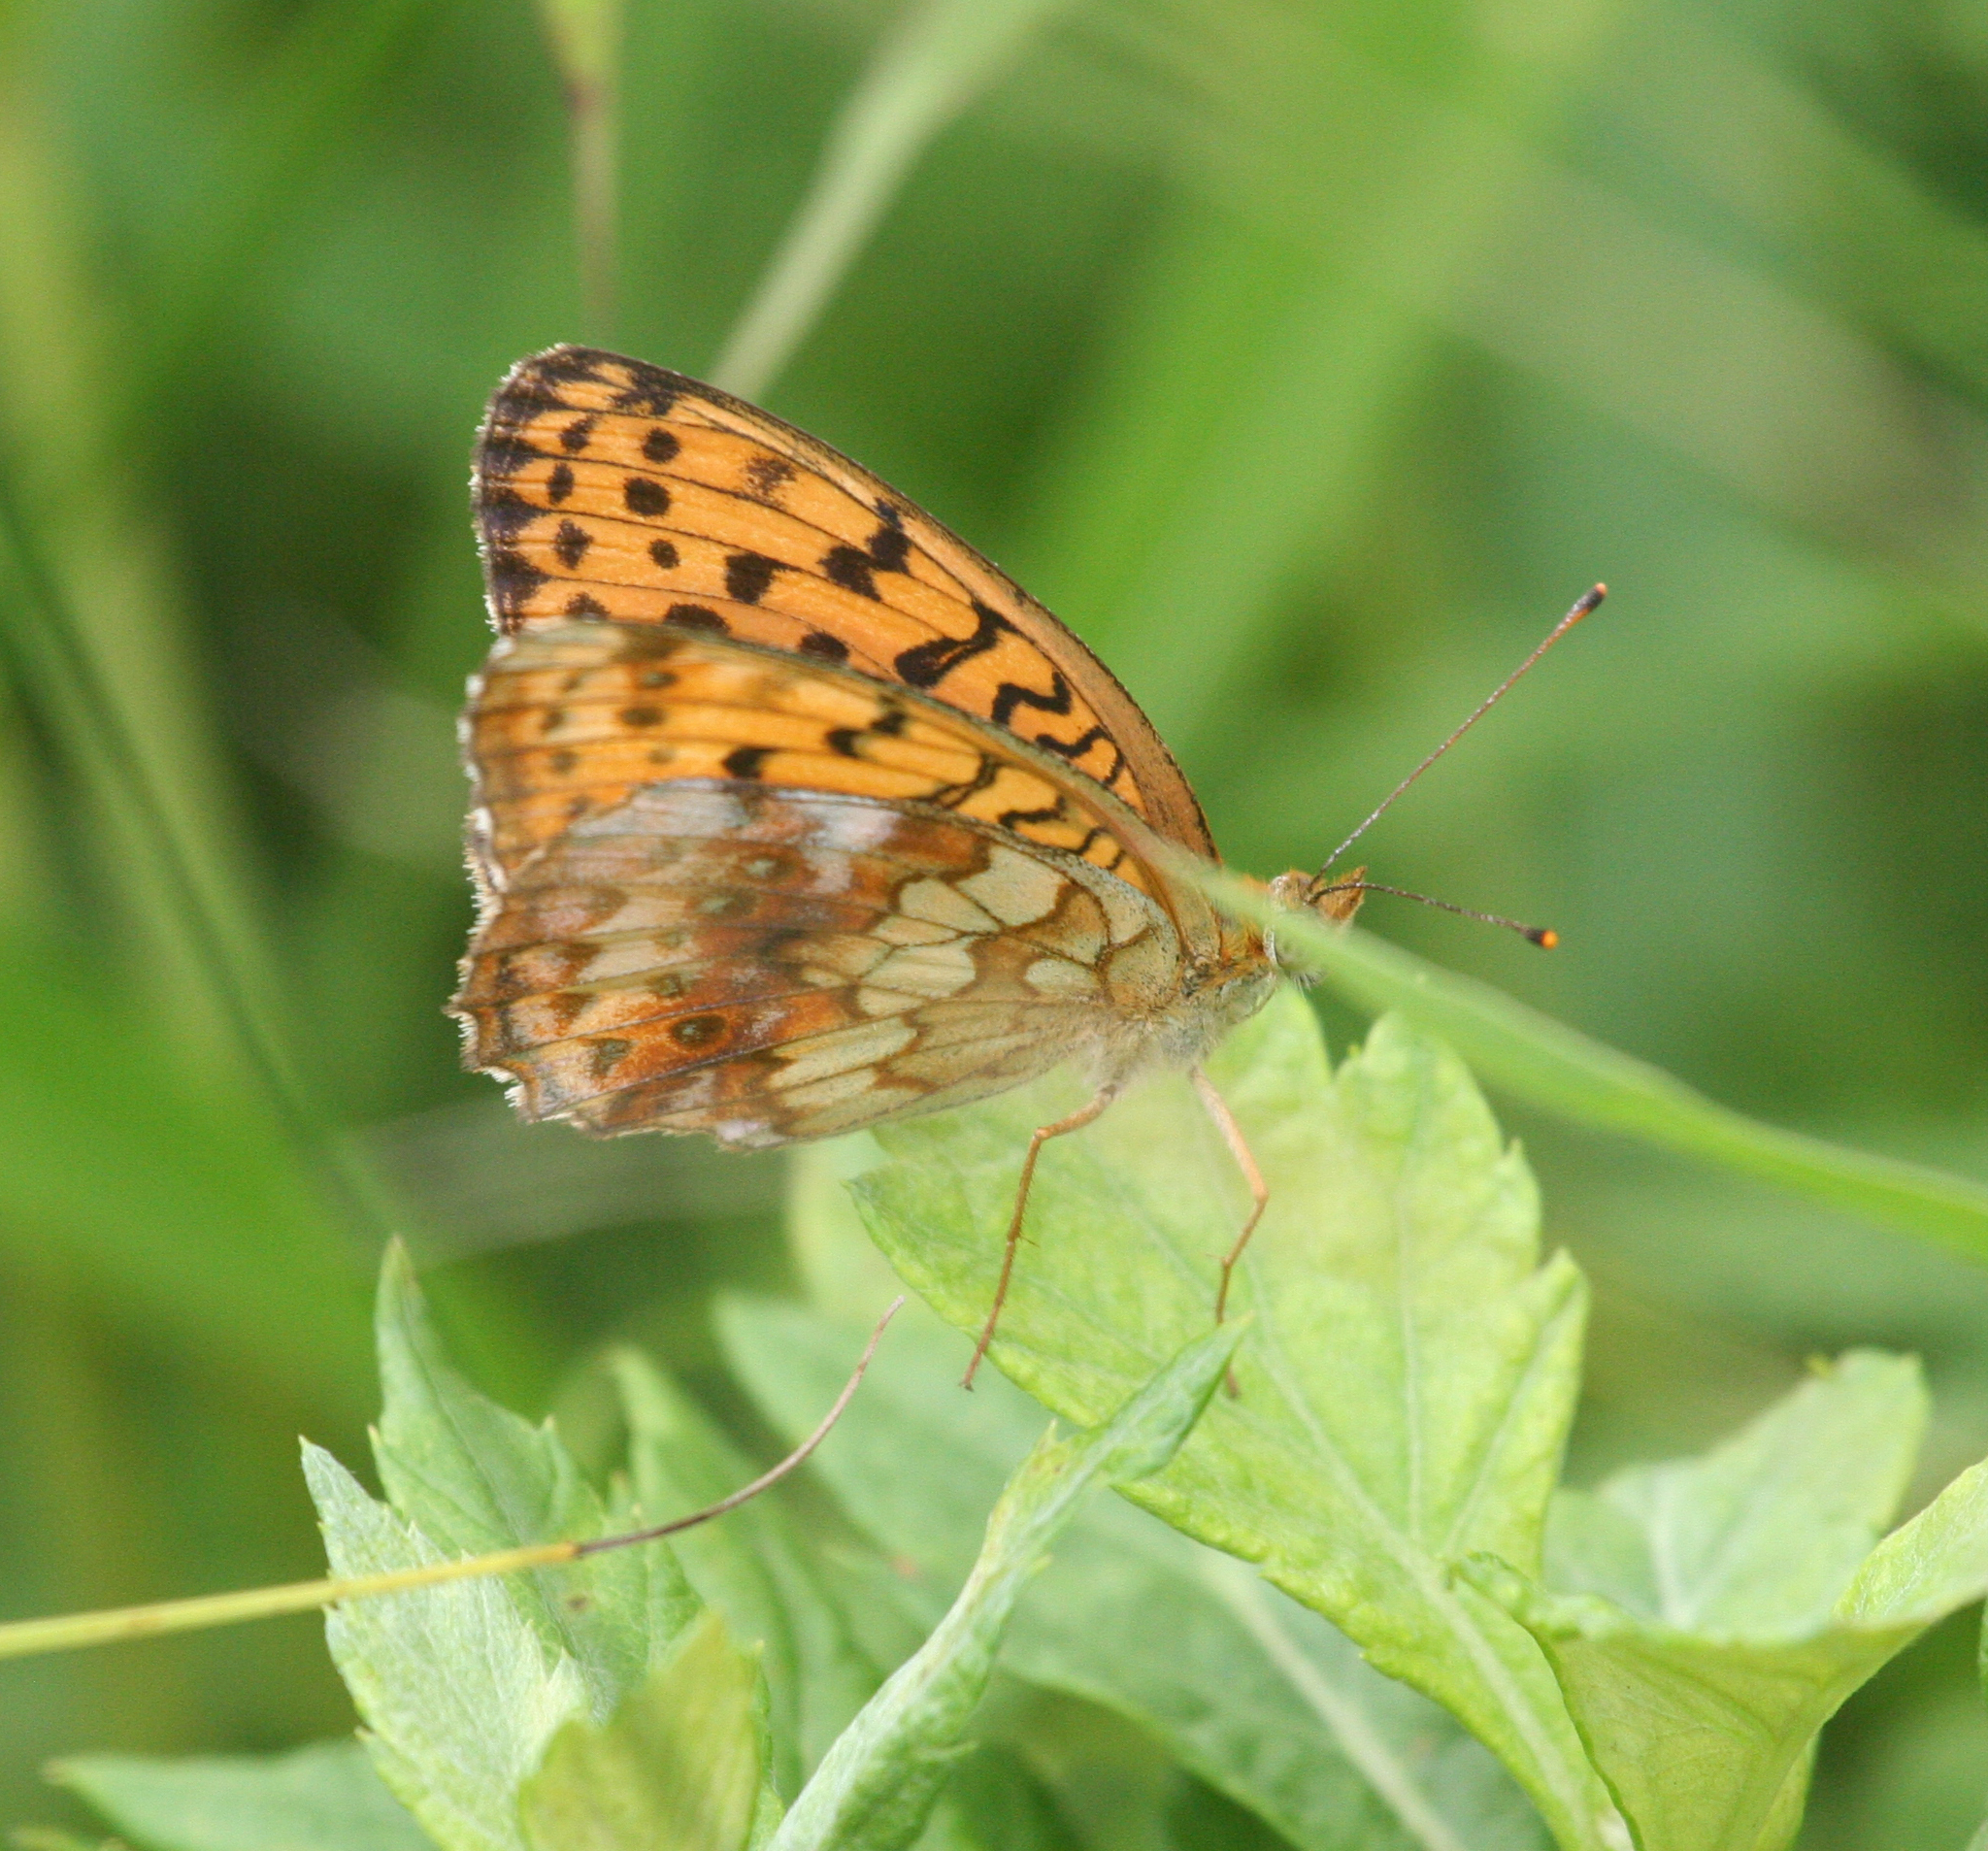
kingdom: Animalia
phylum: Arthropoda
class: Insecta
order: Lepidoptera
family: Nymphalidae
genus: Brenthis
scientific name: Brenthis ino
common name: Lesser marbled fritillary
